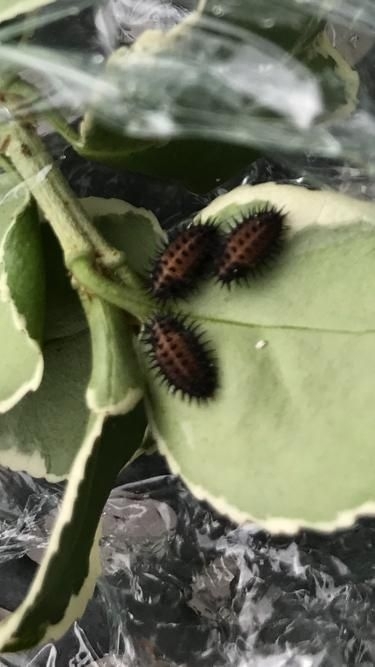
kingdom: Animalia
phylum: Arthropoda
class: Insecta
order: Coleoptera
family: Coccinellidae
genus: Chilocorus
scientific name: Chilocorus renipustulatus
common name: Kidney-spot ladybird
